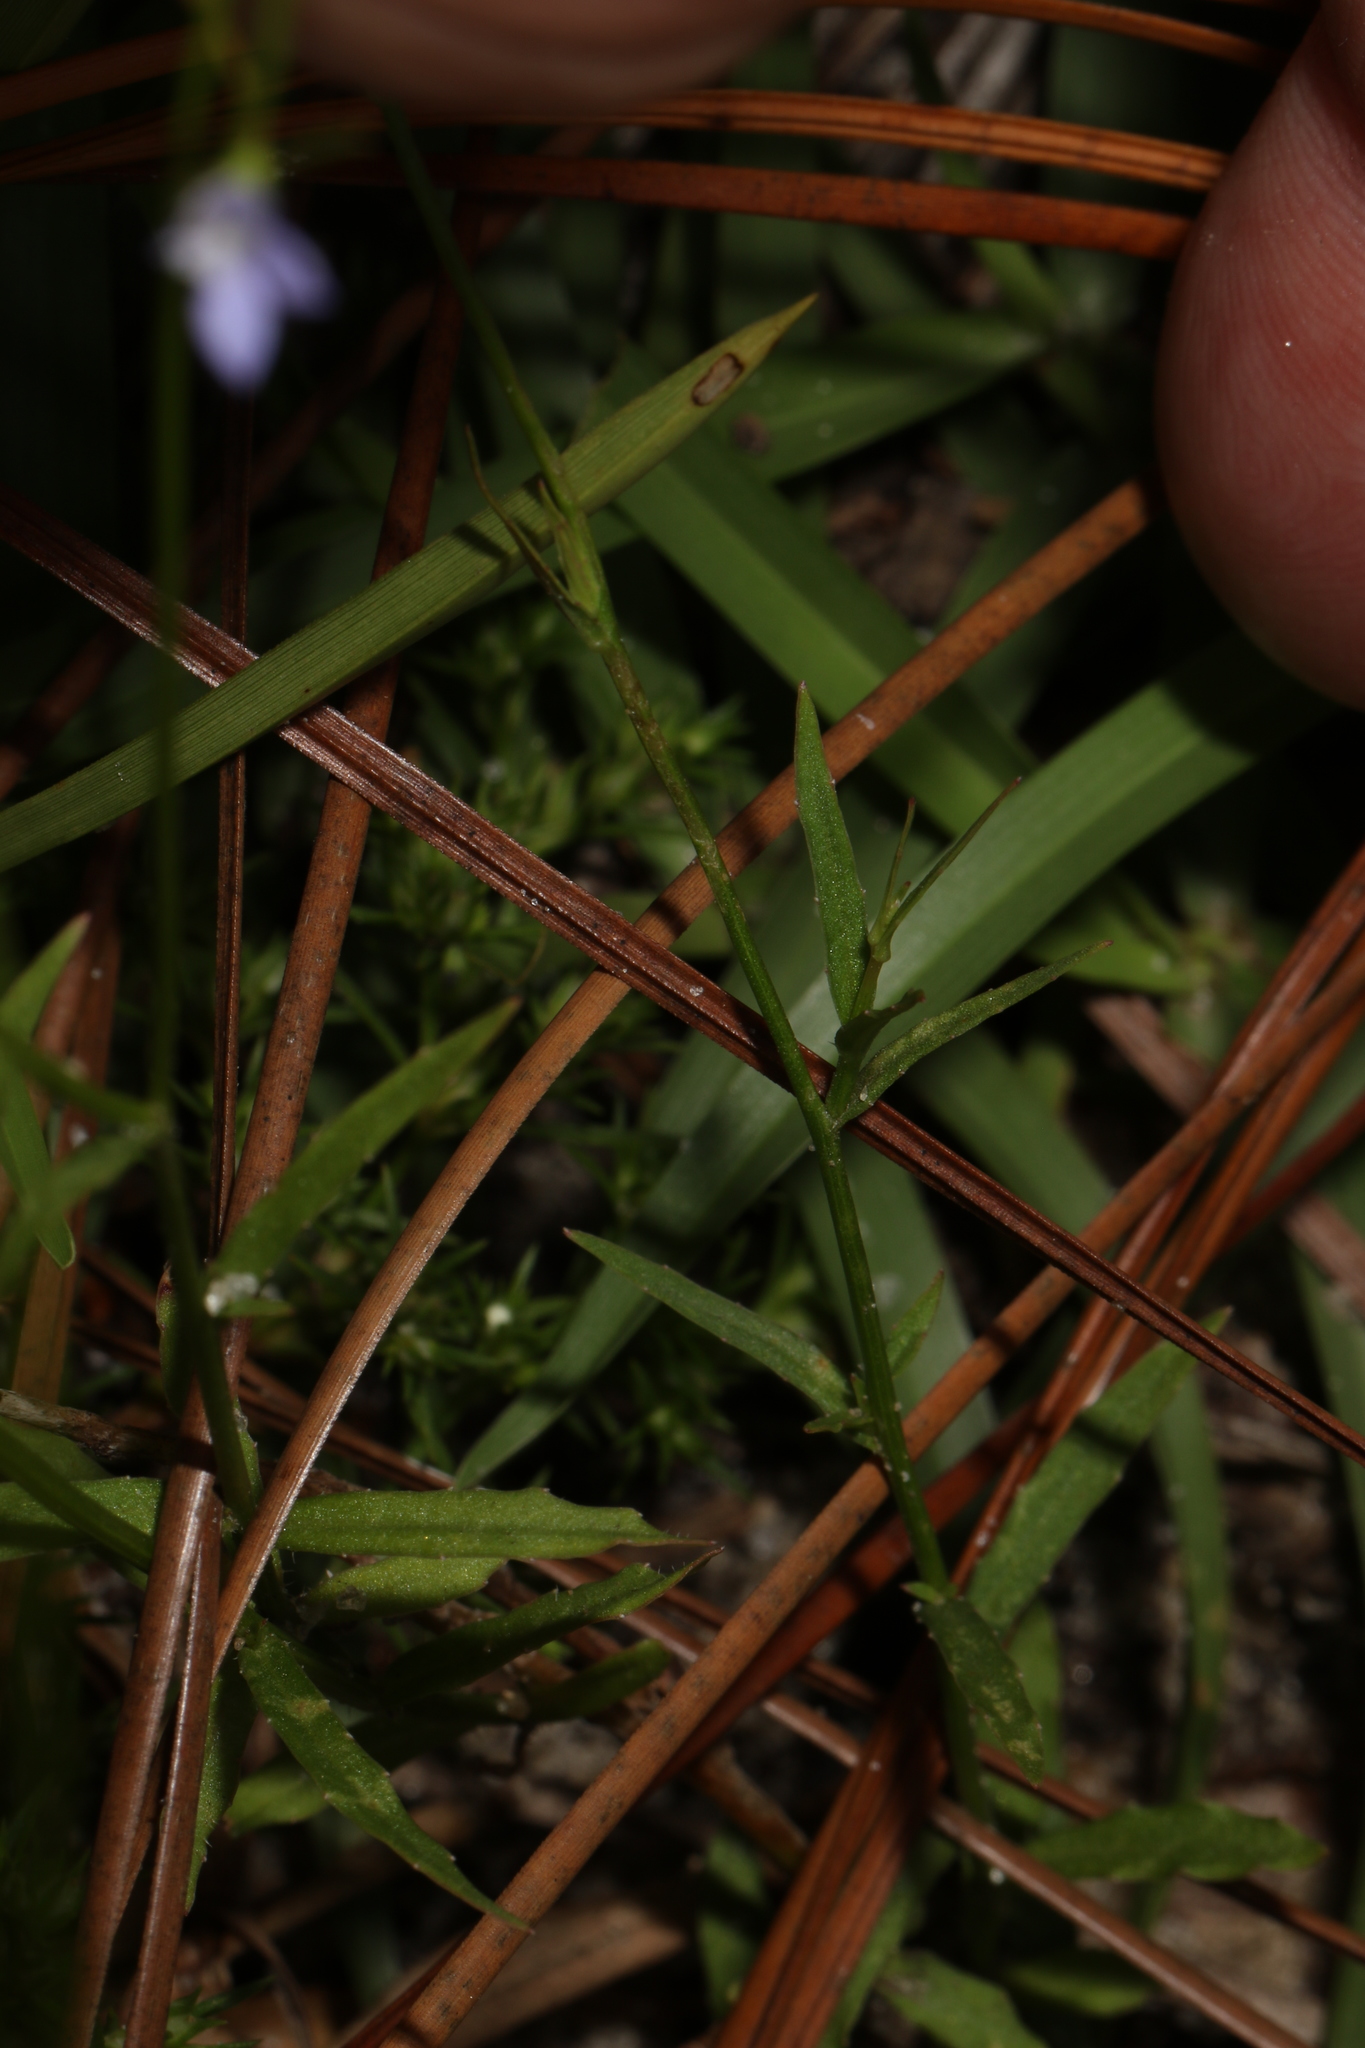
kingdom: Plantae
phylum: Tracheophyta
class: Magnoliopsida
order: Asterales
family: Campanulaceae
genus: Wahlenbergia
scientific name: Wahlenbergia marginata
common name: Southern rockbell
